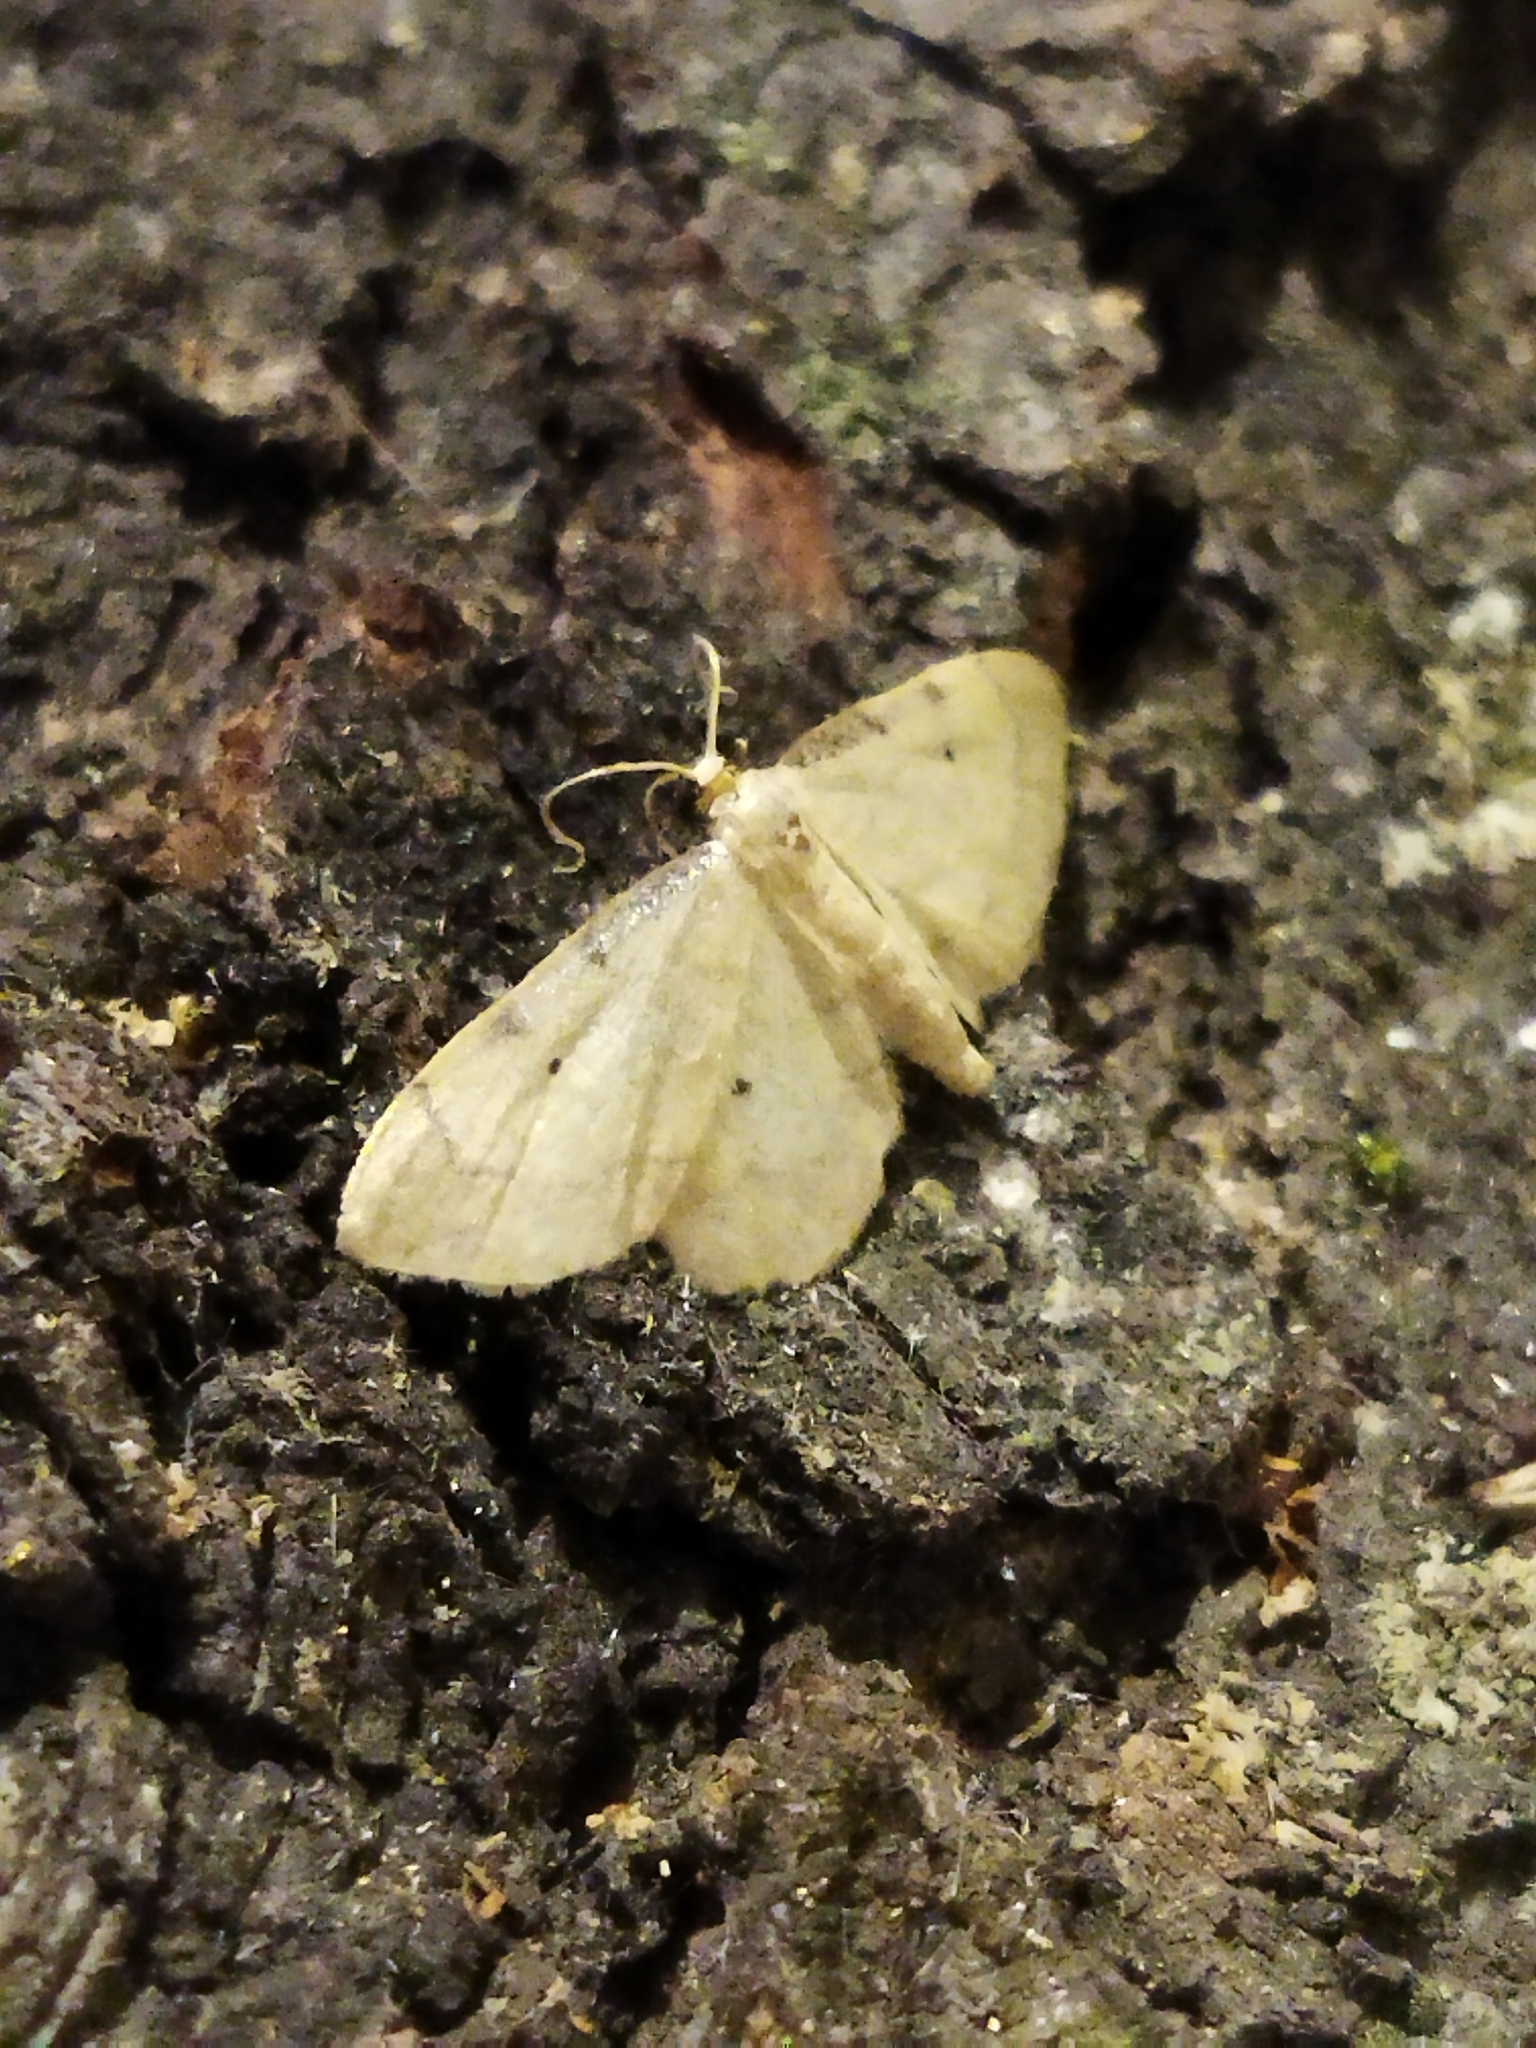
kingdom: Animalia
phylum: Arthropoda
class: Insecta
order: Lepidoptera
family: Geometridae
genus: Idaea
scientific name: Idaea politaria
